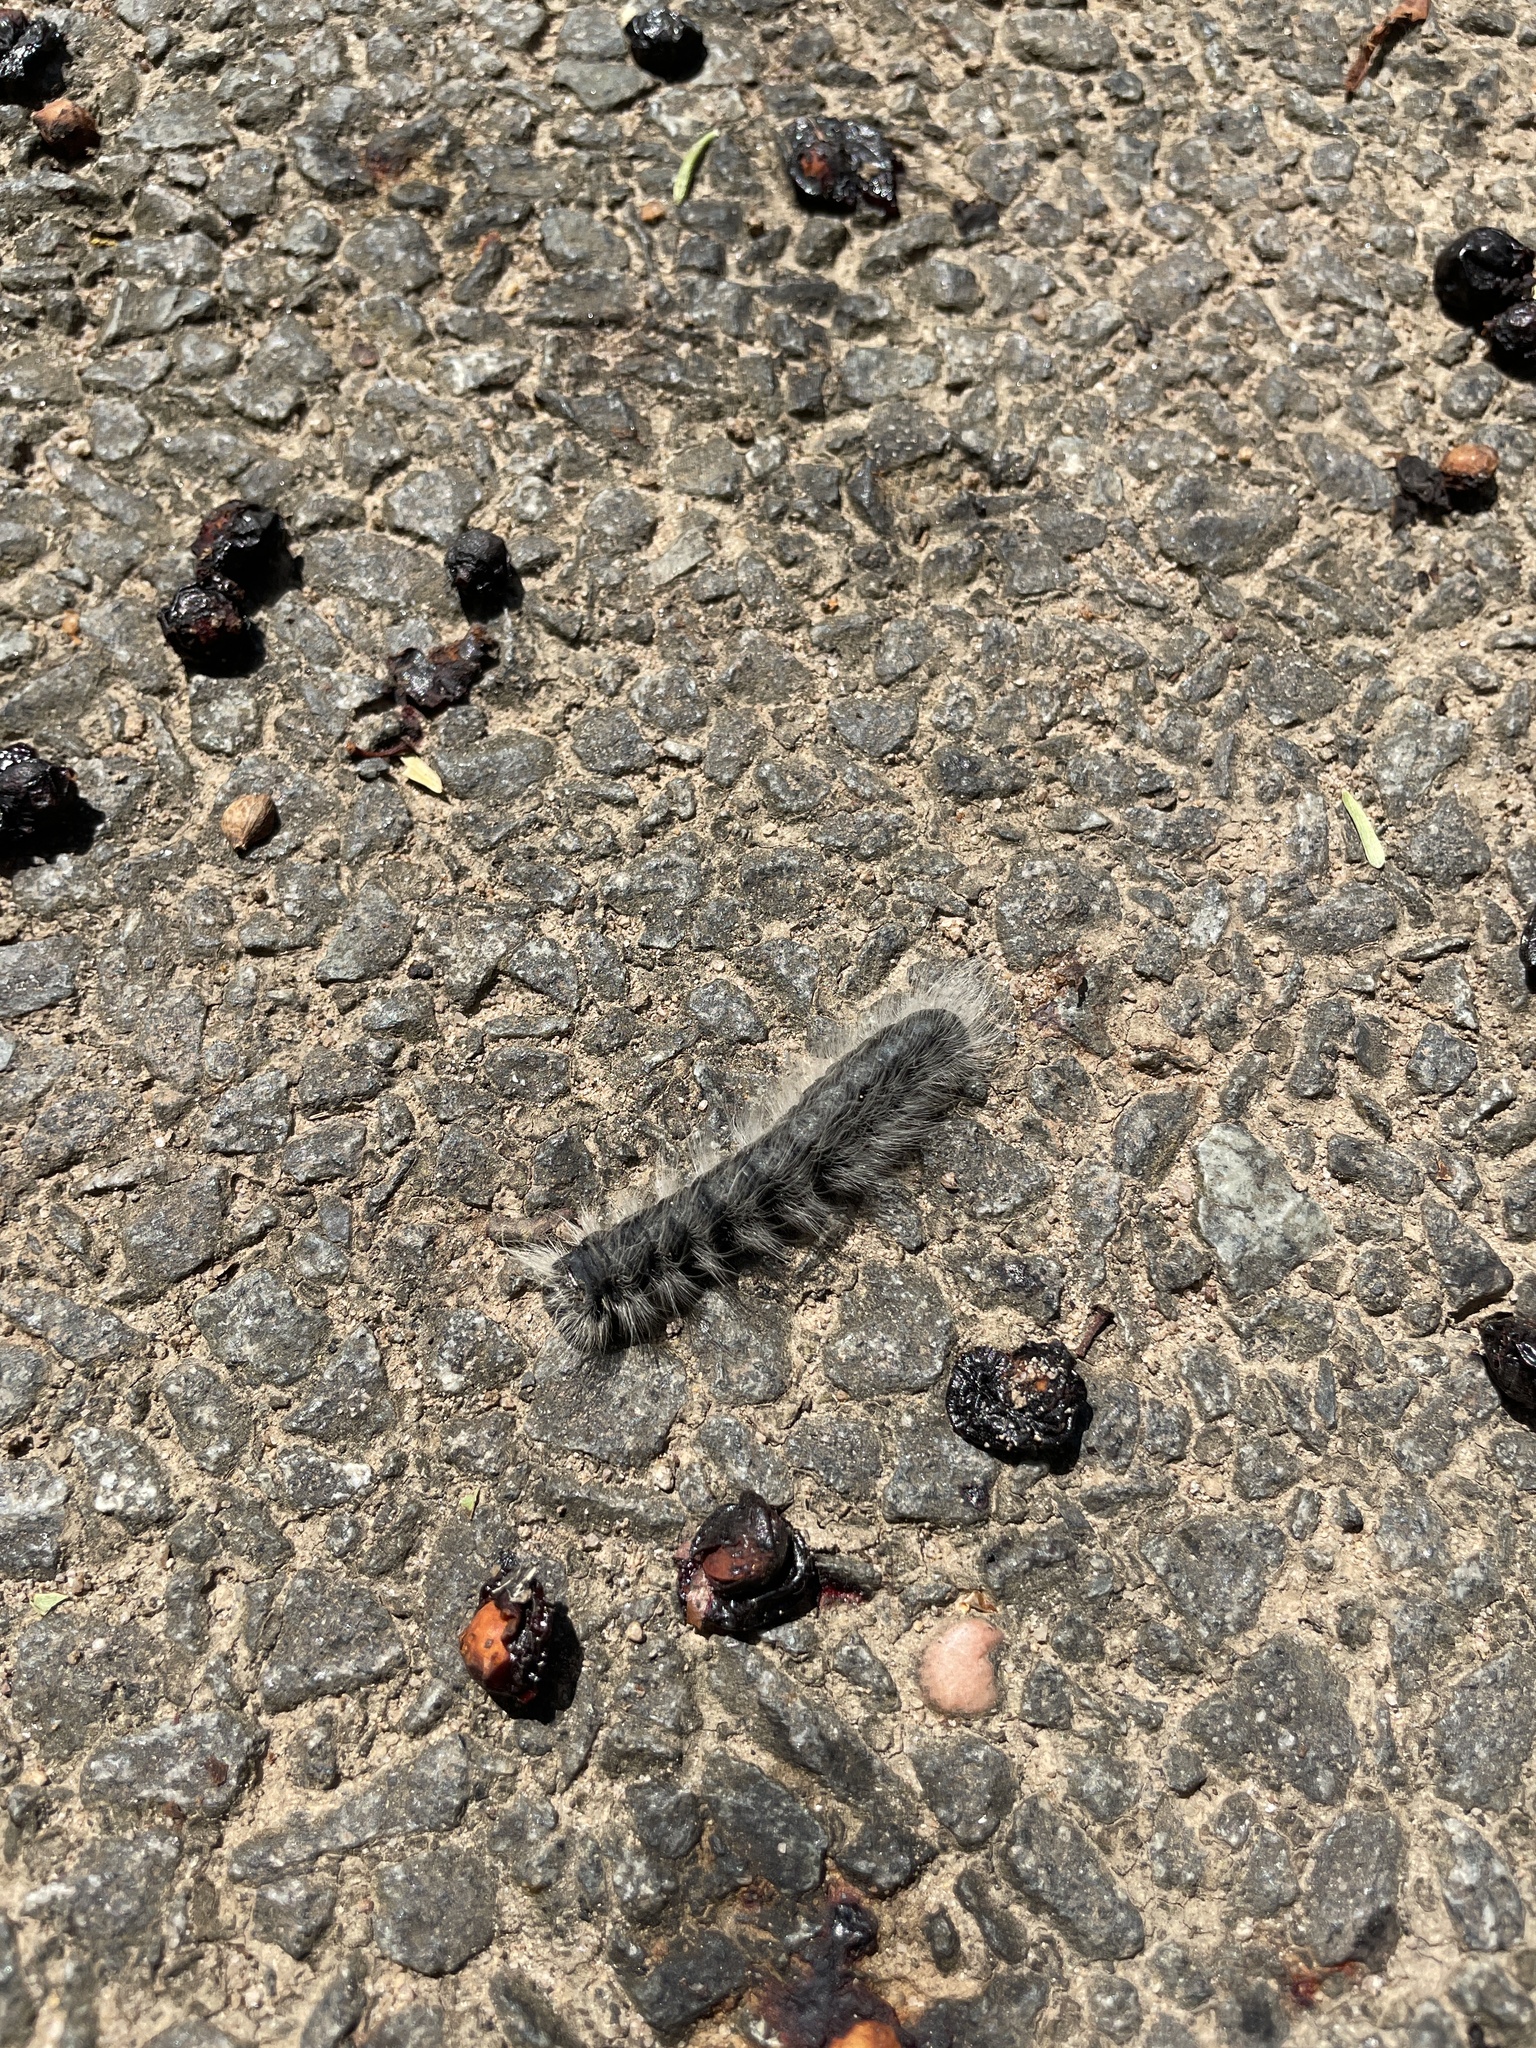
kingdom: Animalia
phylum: Arthropoda
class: Insecta
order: Lepidoptera
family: Notodontidae
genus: Datana
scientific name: Datana integerrima
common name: Walnut caterpillar
